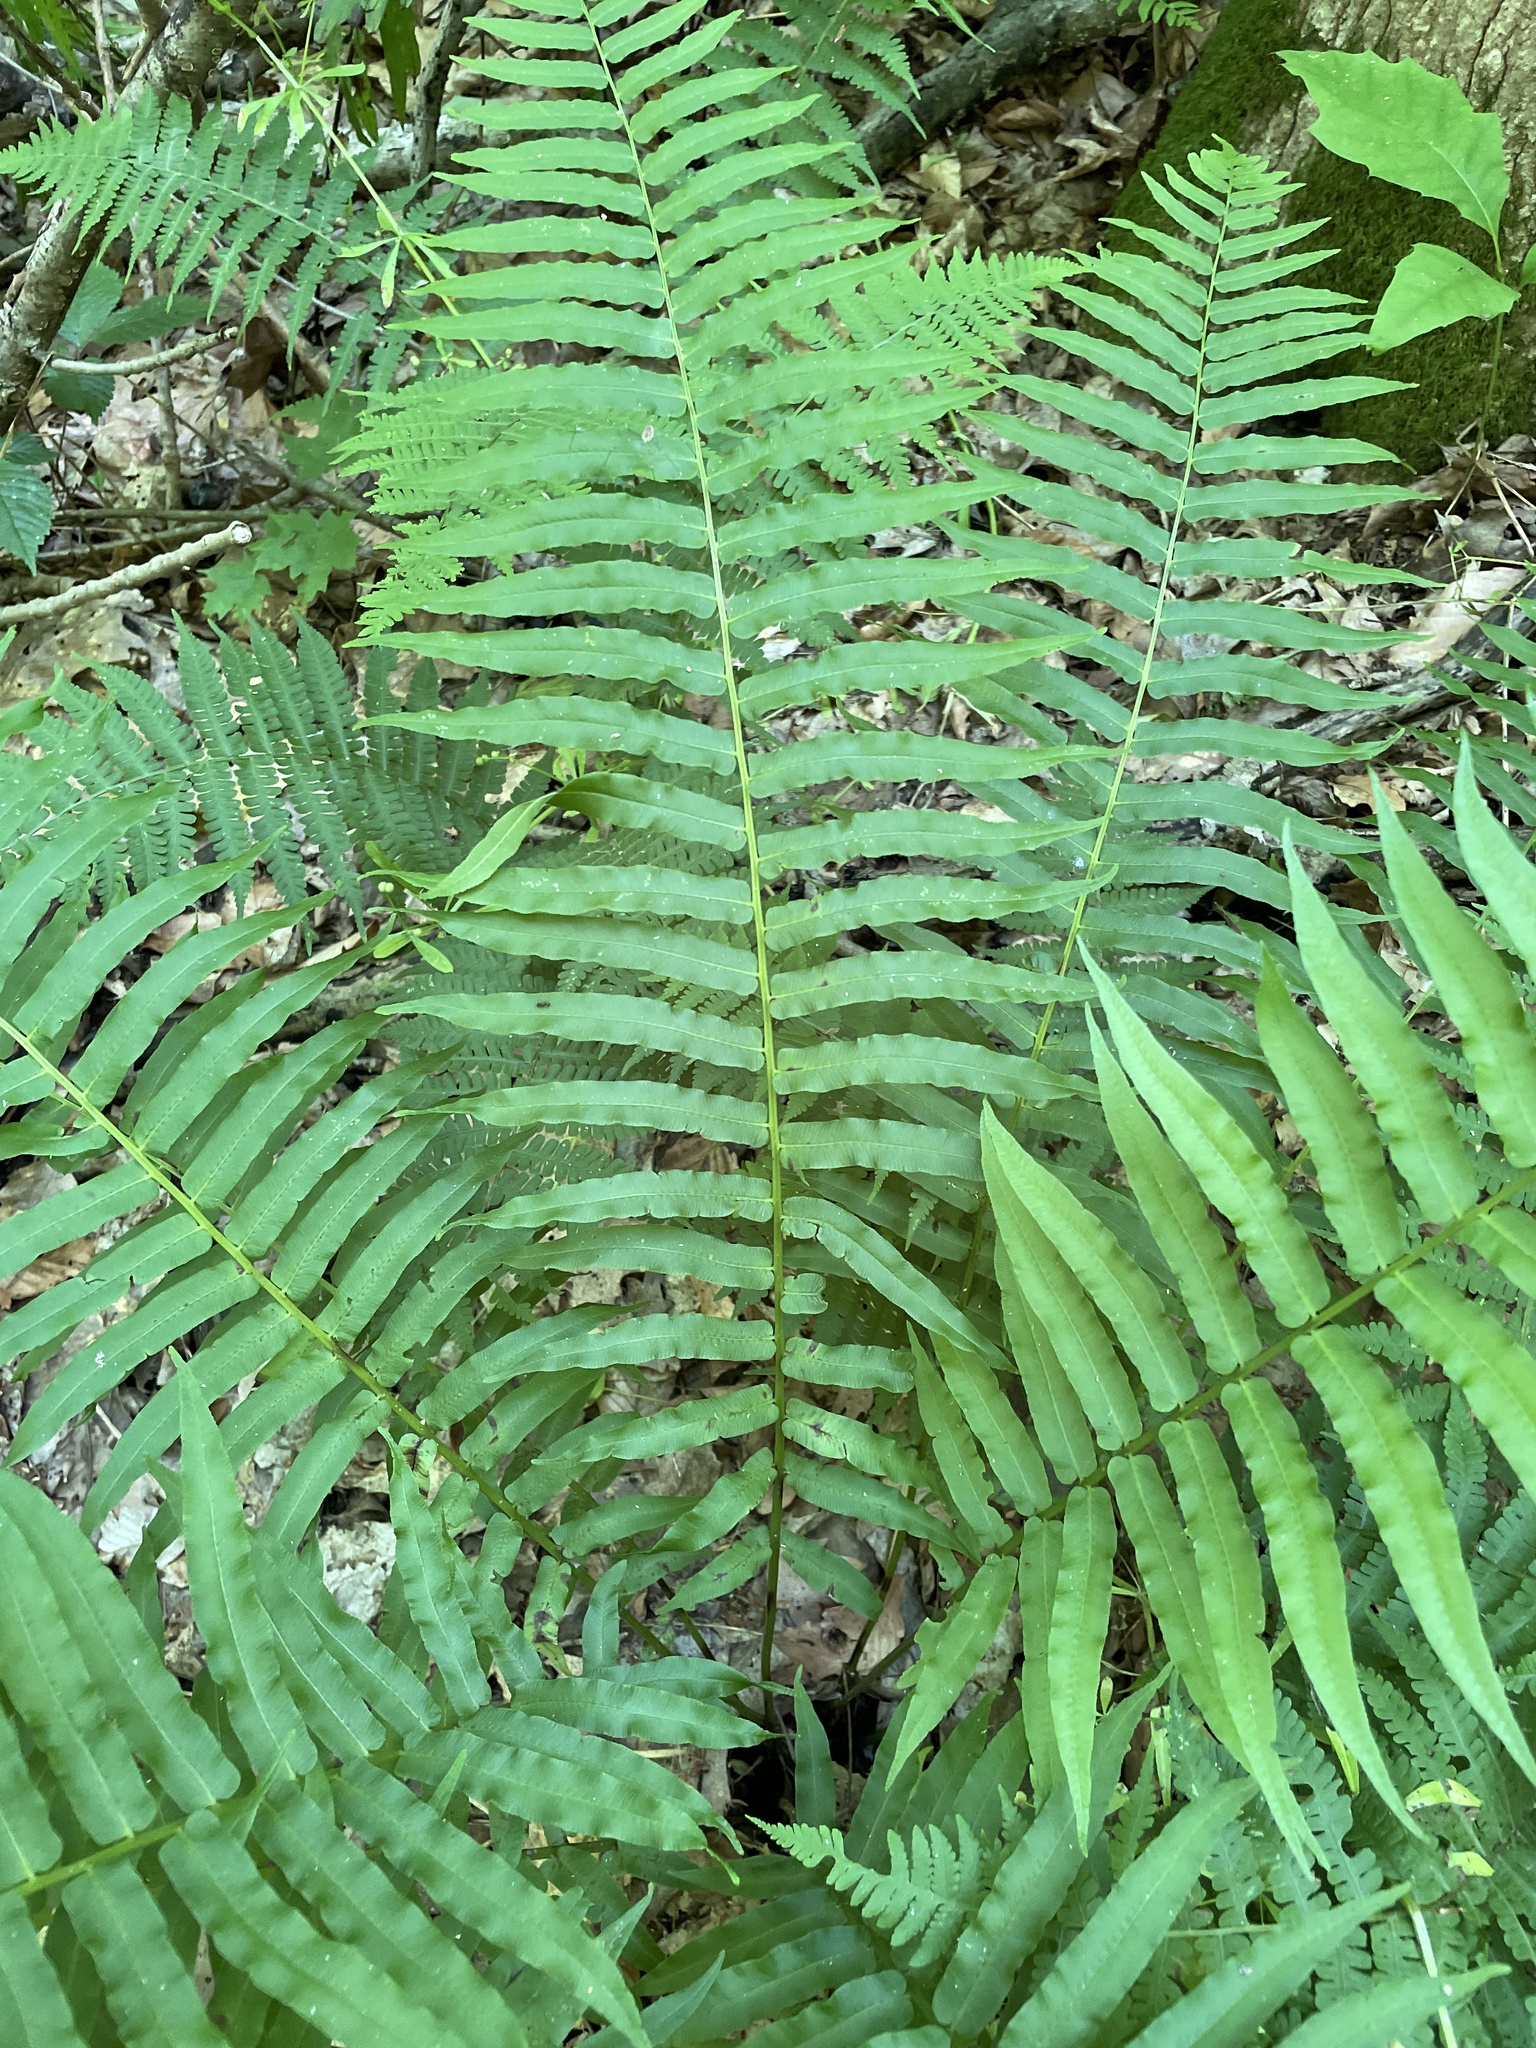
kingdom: Plantae
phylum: Tracheophyta
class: Polypodiopsida
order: Polypodiales
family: Diplaziopsidaceae
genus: Homalosorus
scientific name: Homalosorus pycnocarpos
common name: Glade fern
